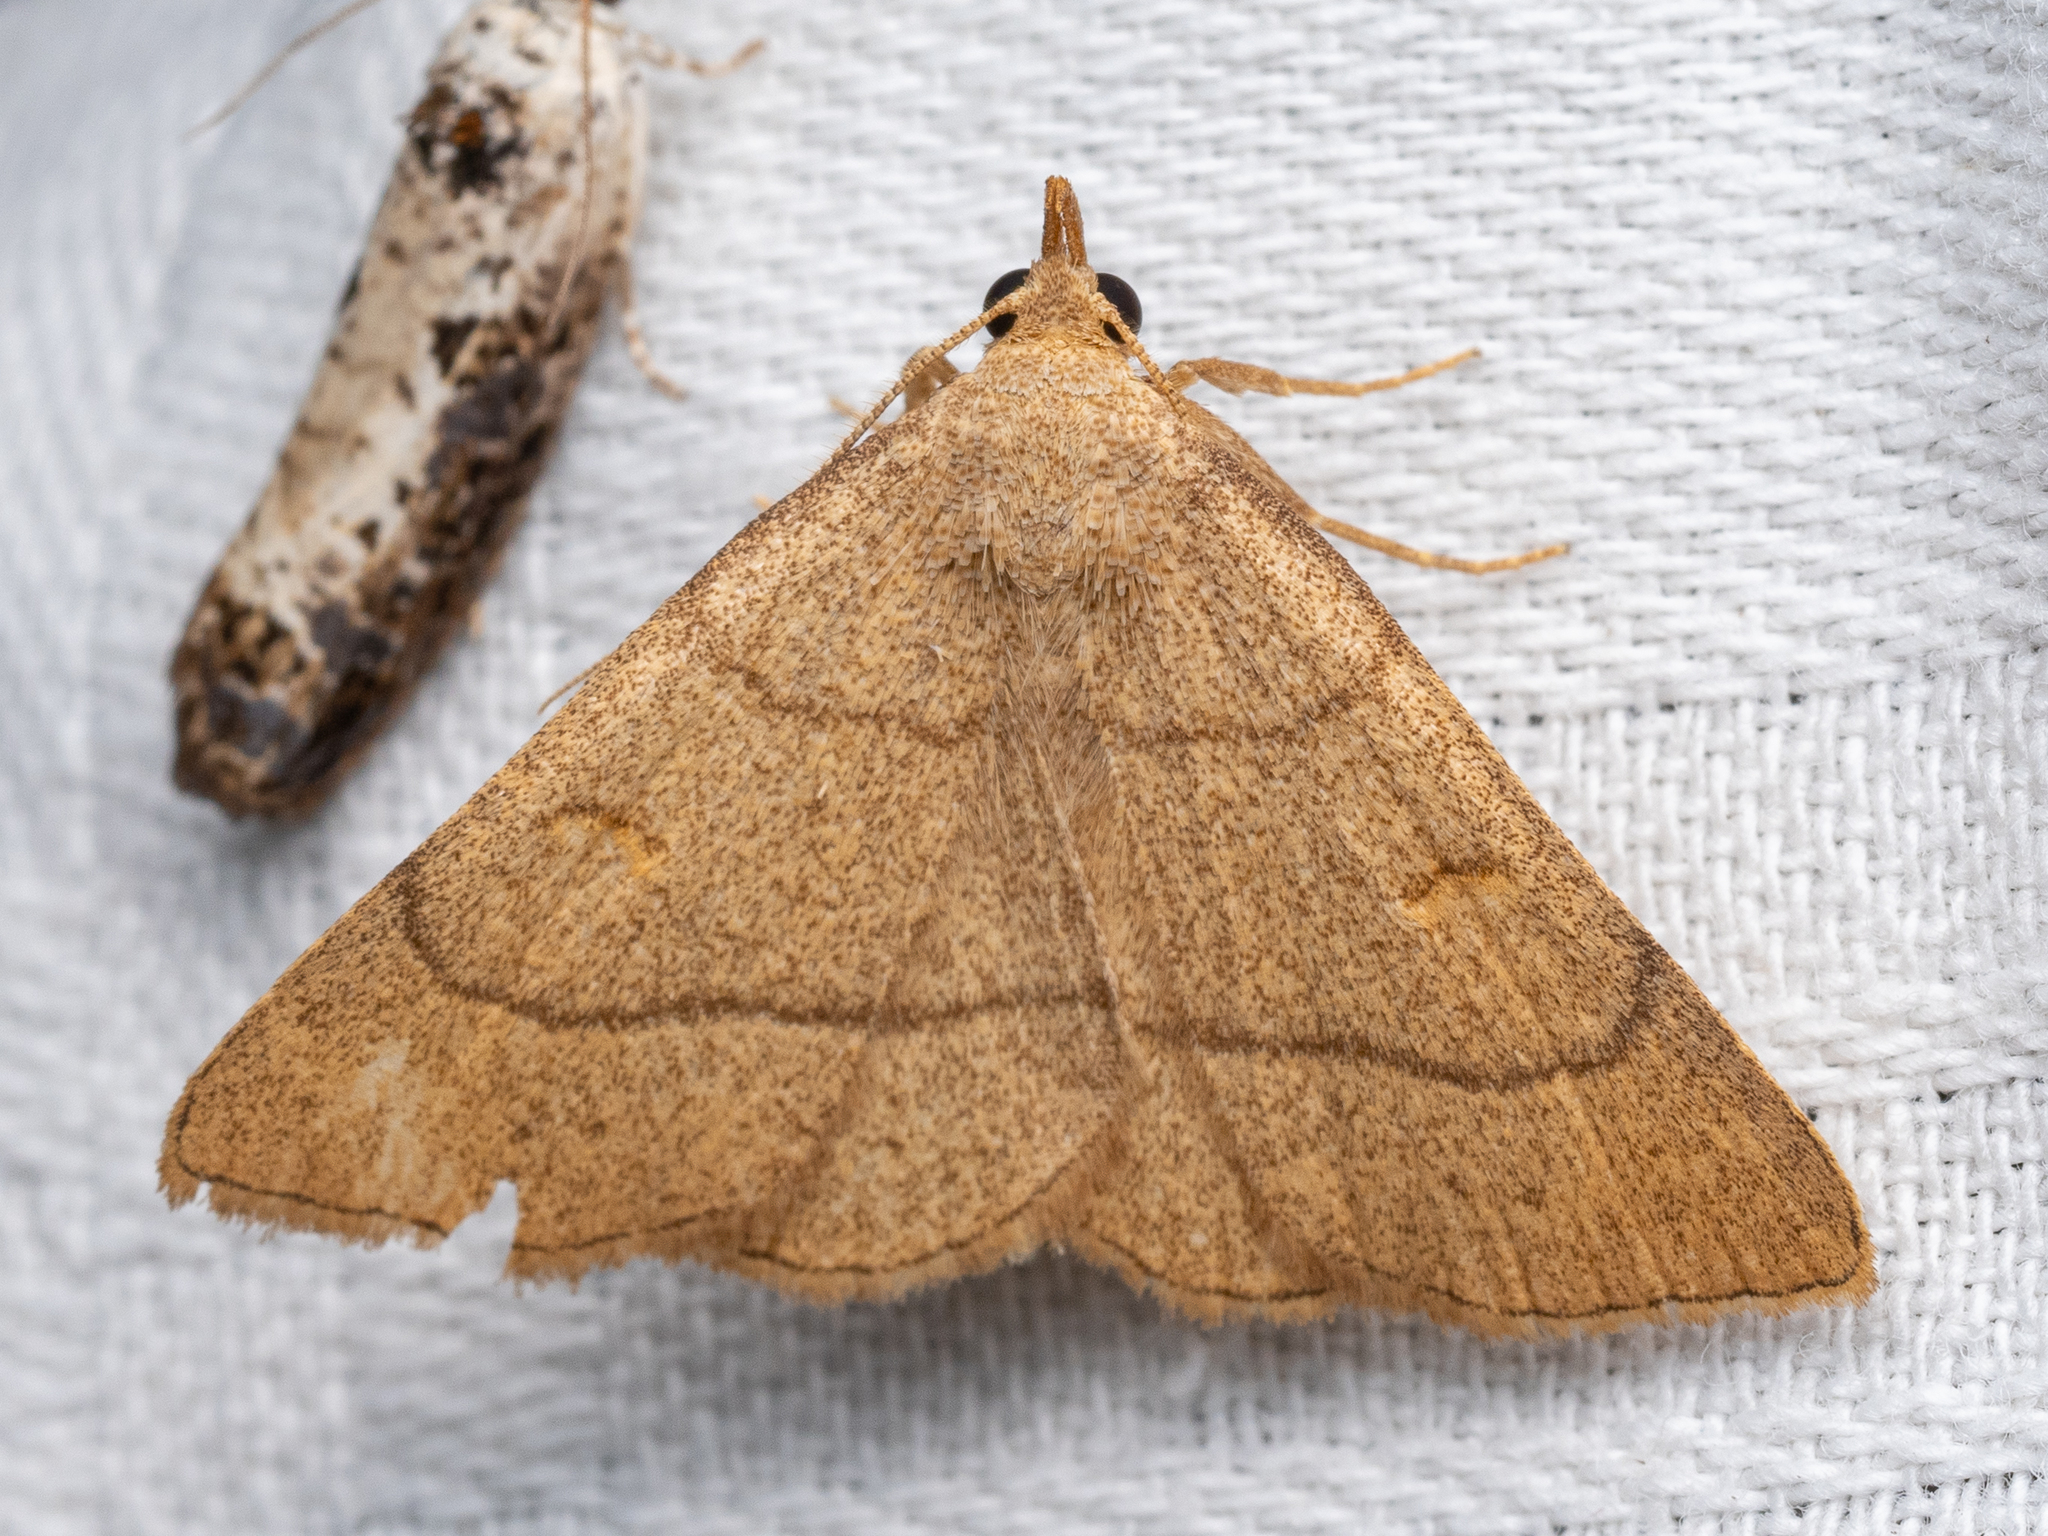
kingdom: Animalia
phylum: Arthropoda
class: Insecta
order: Lepidoptera
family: Erebidae
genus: Paracolax
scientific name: Paracolax tristalis
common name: Clay fan-foot
